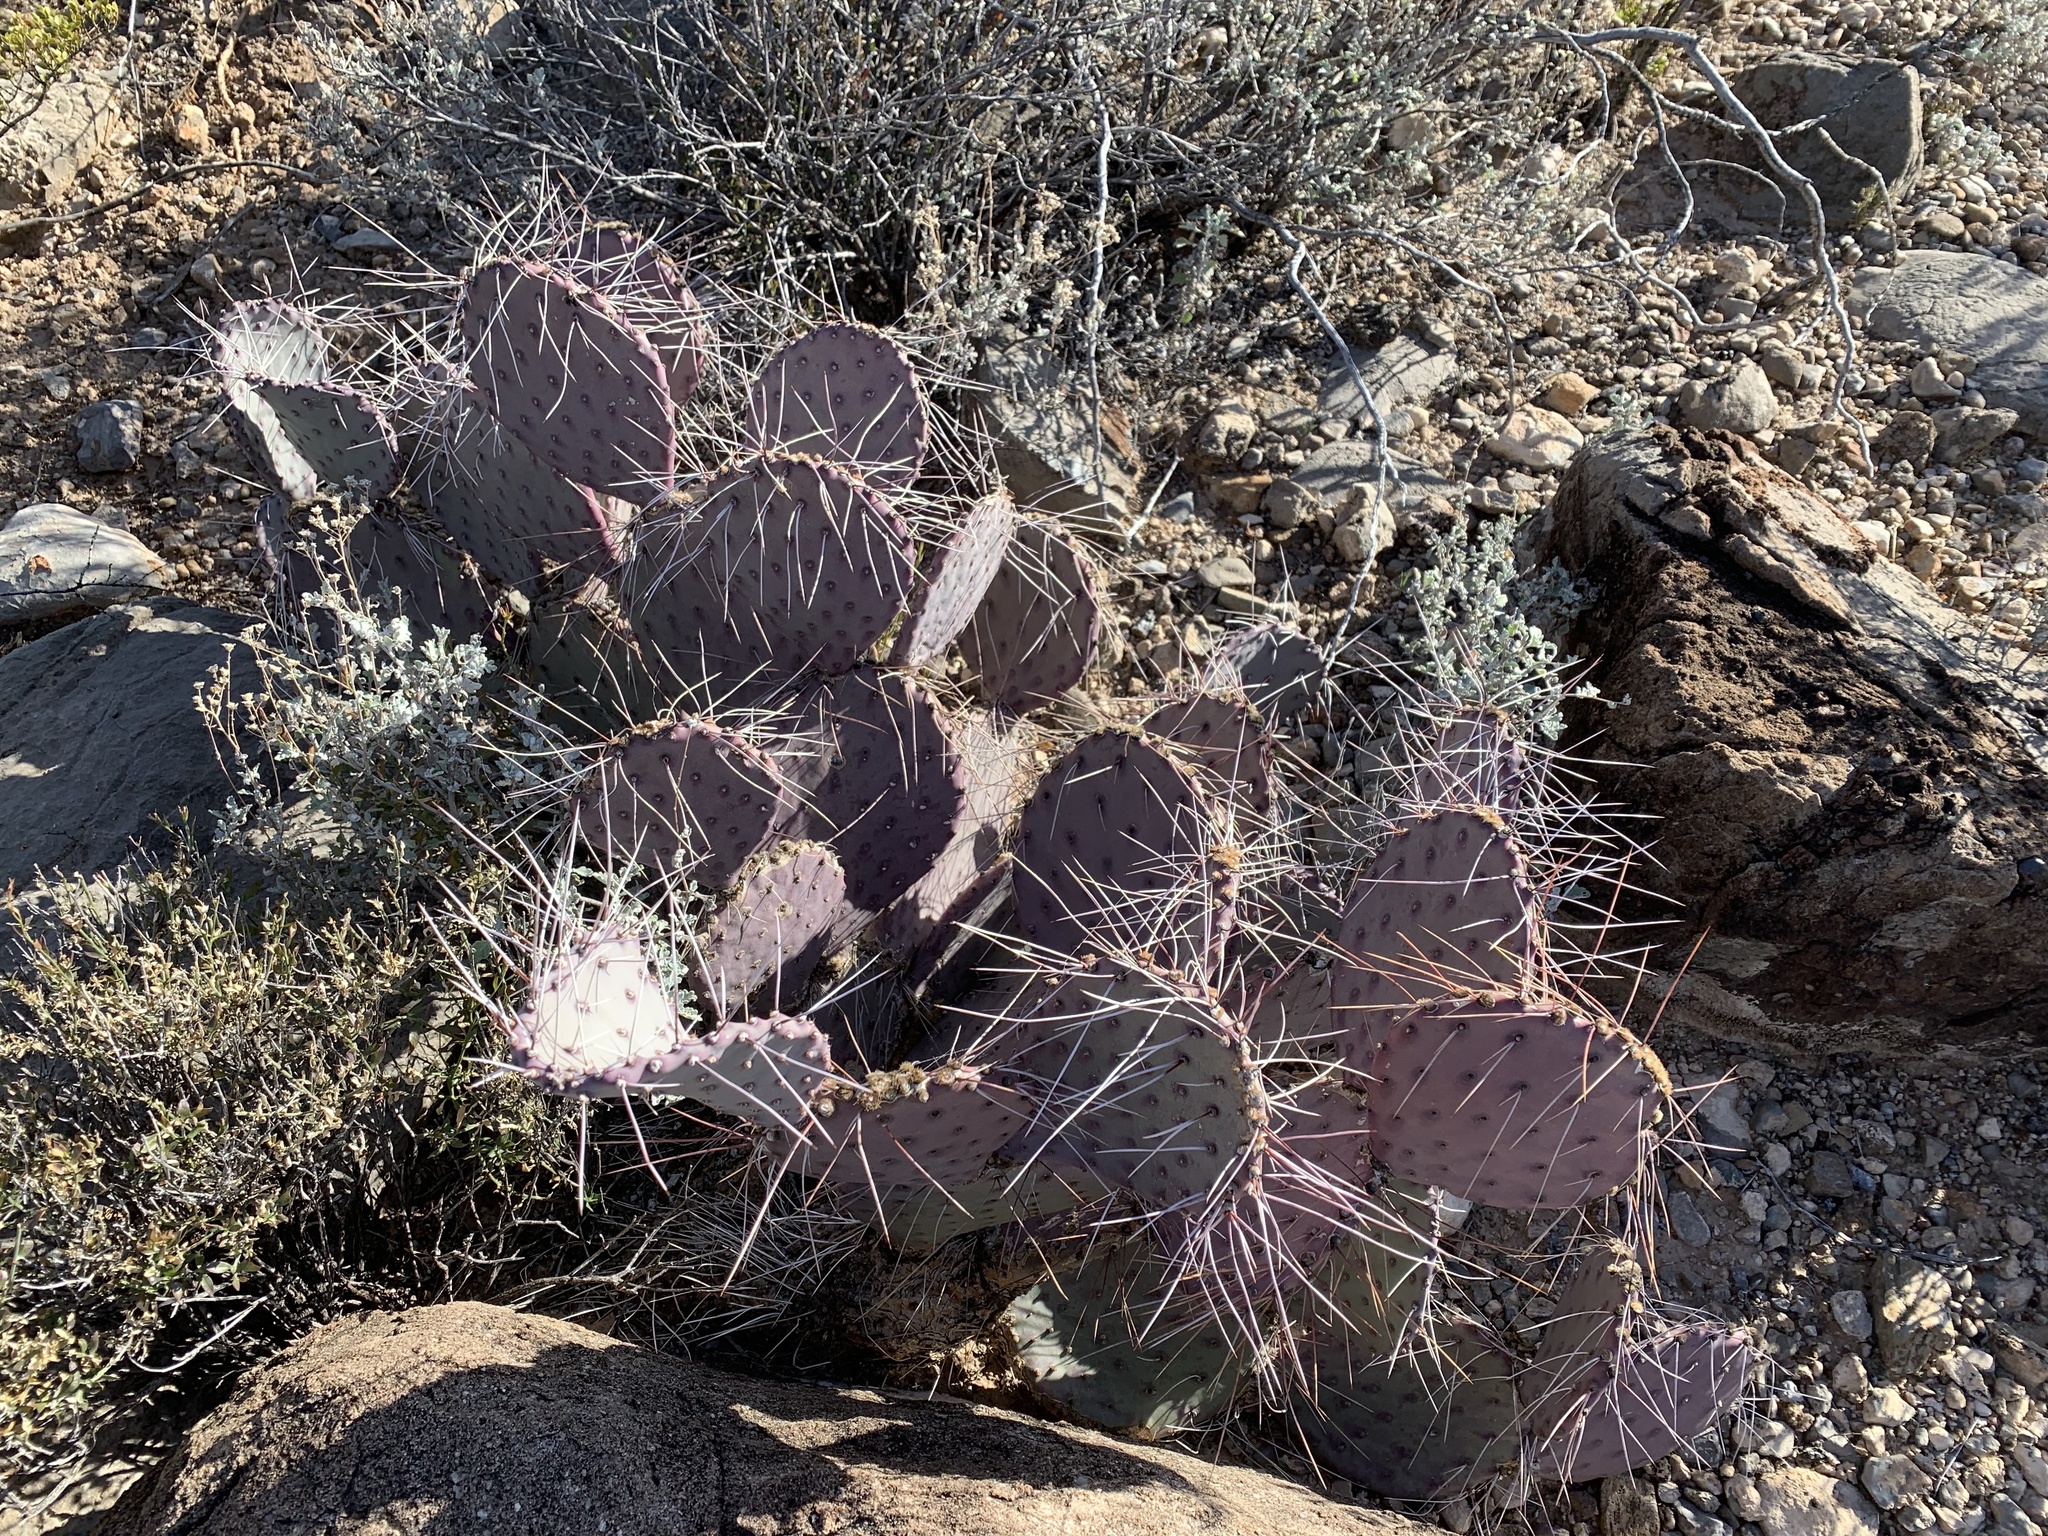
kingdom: Plantae
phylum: Tracheophyta
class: Magnoliopsida
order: Caryophyllales
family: Cactaceae
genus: Opuntia
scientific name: Opuntia macrocentra
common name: Purple prickly-pear
